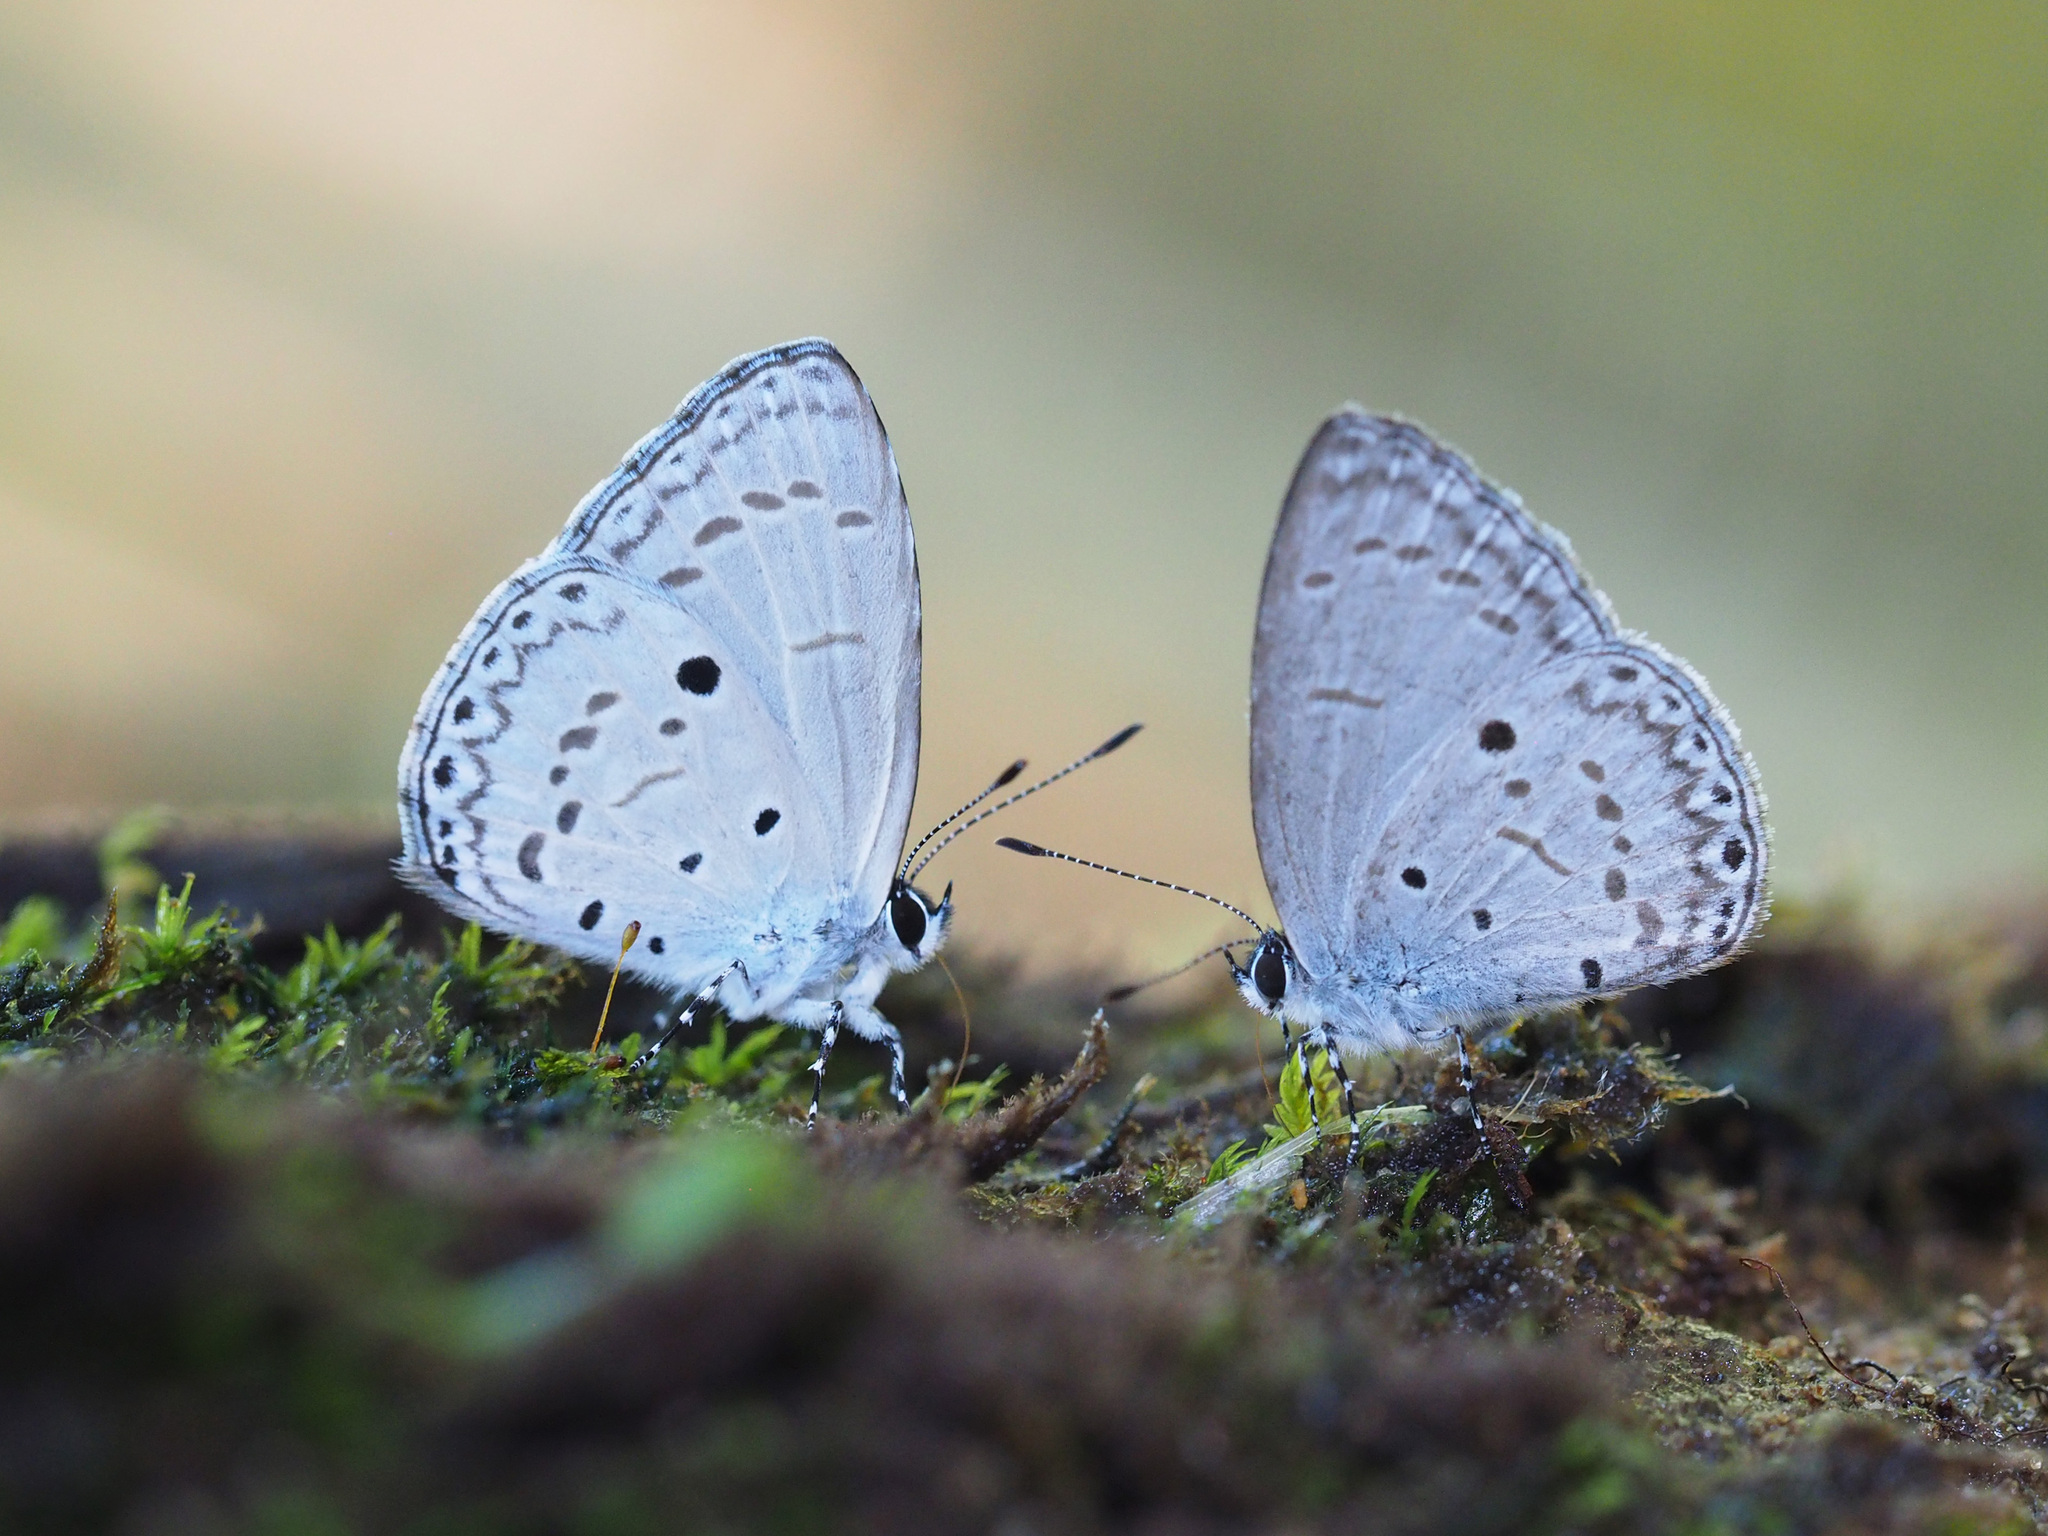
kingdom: Animalia
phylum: Arthropoda
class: Insecta
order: Lepidoptera
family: Lycaenidae
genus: Udara
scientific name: Udara
